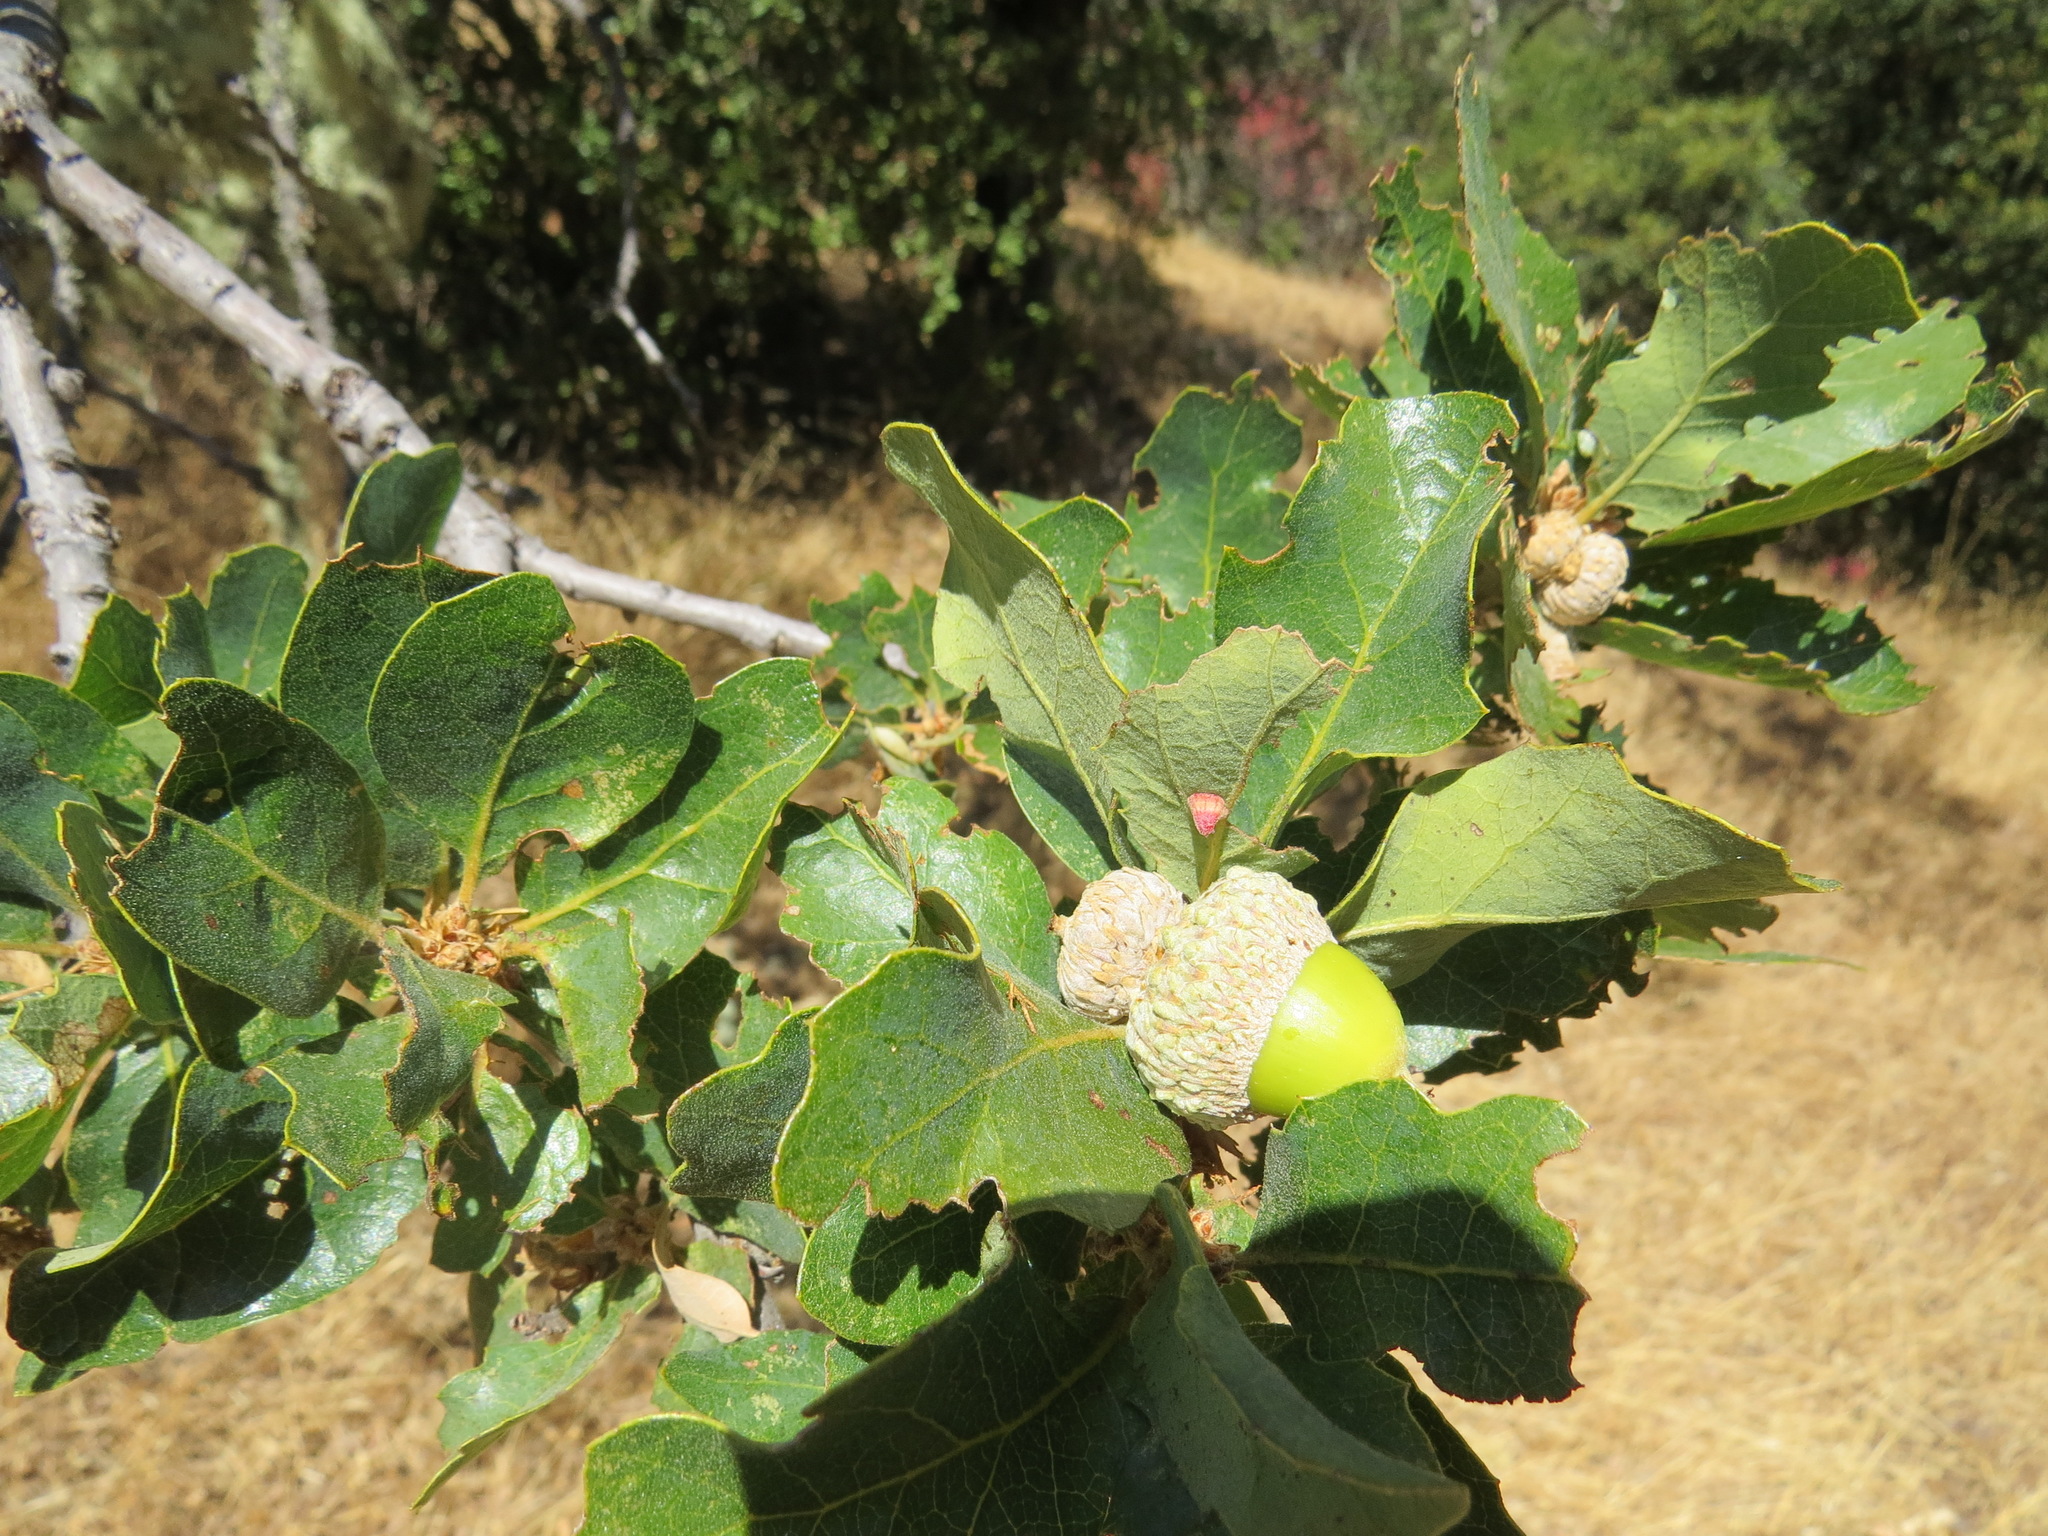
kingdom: Animalia
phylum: Arthropoda
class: Insecta
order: Hymenoptera
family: Cynipidae
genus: Andricus
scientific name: Andricus
